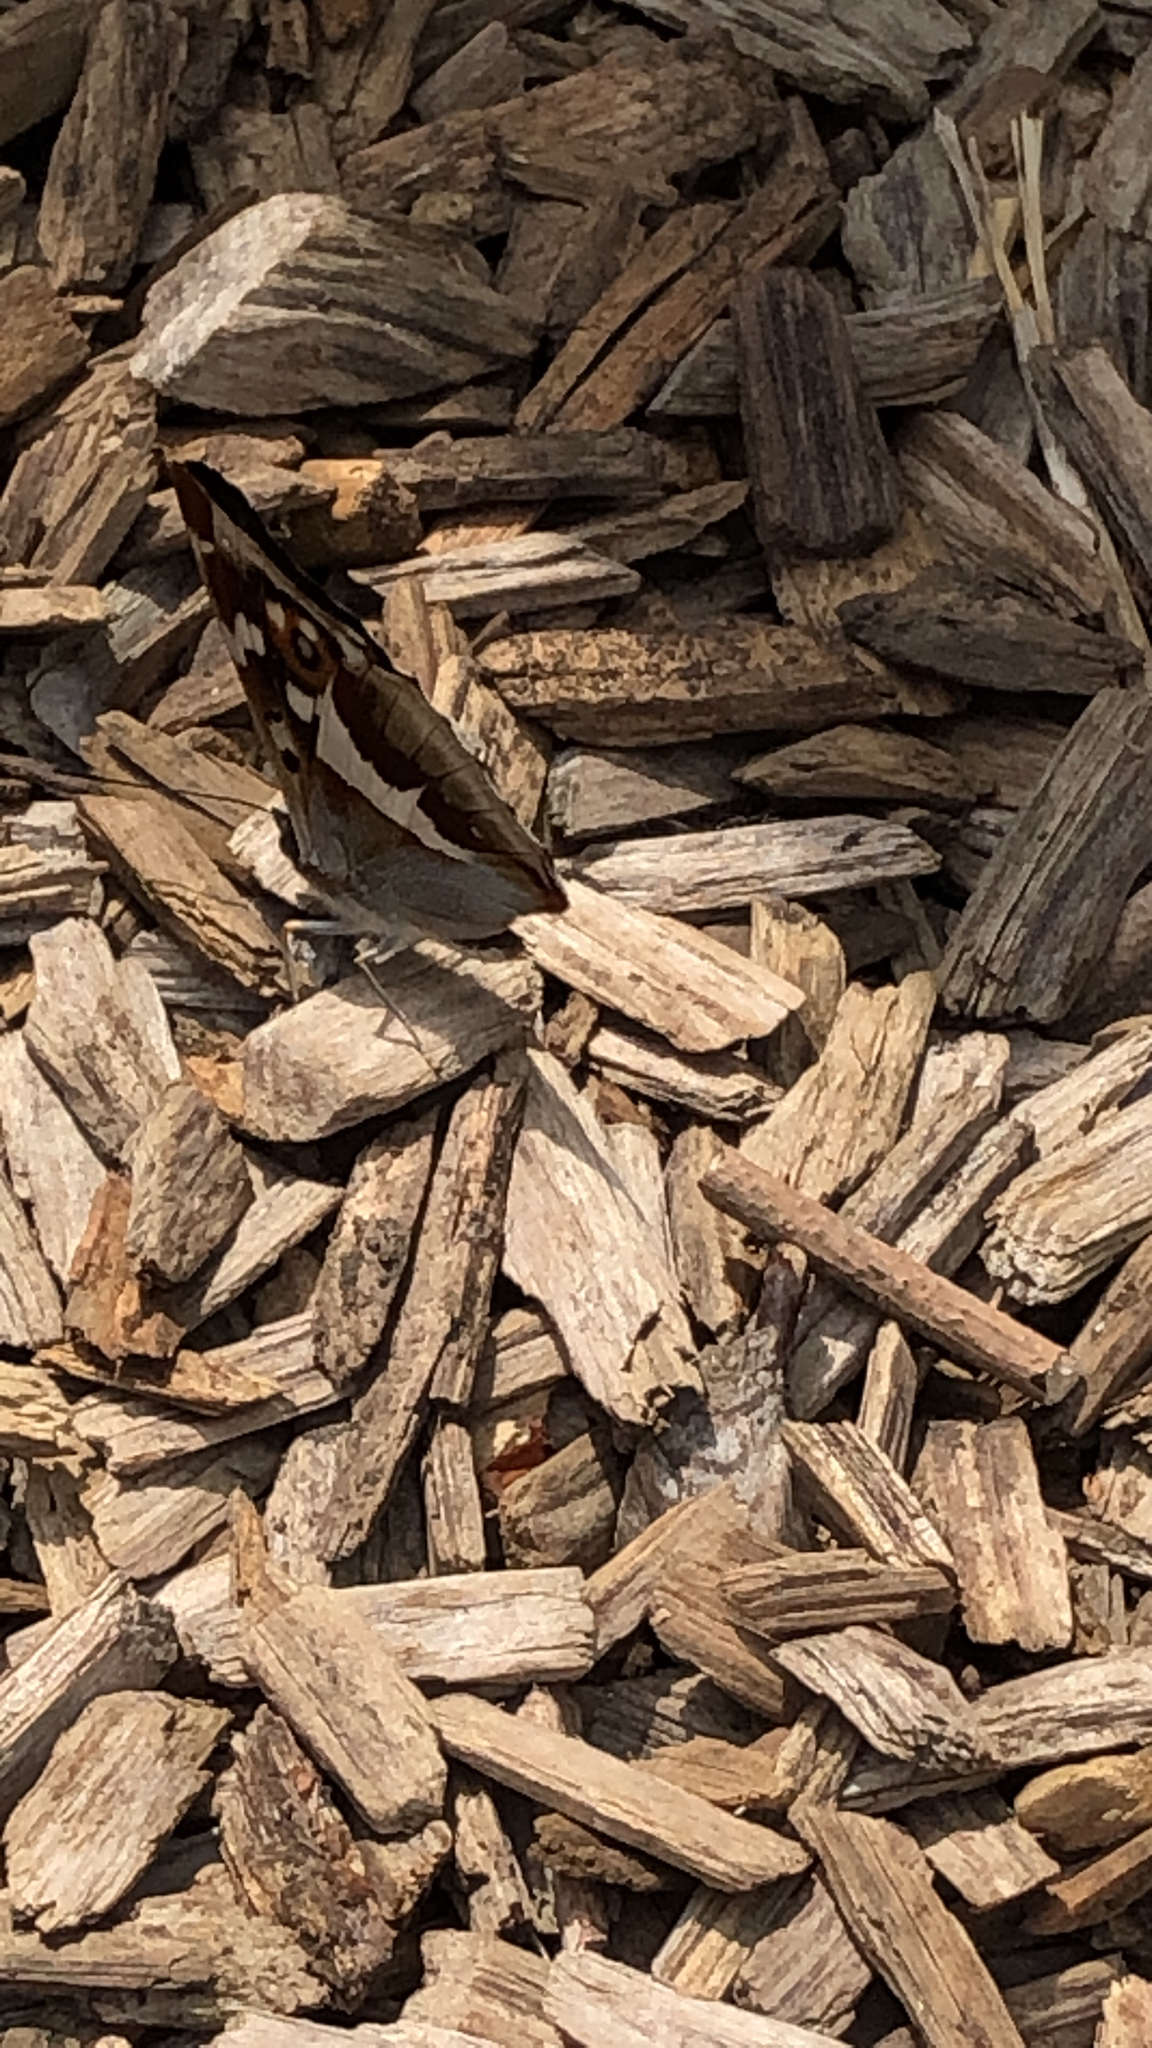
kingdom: Animalia
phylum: Arthropoda
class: Insecta
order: Lepidoptera
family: Nymphalidae
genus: Apatura
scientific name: Apatura iris
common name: Purple emperor
